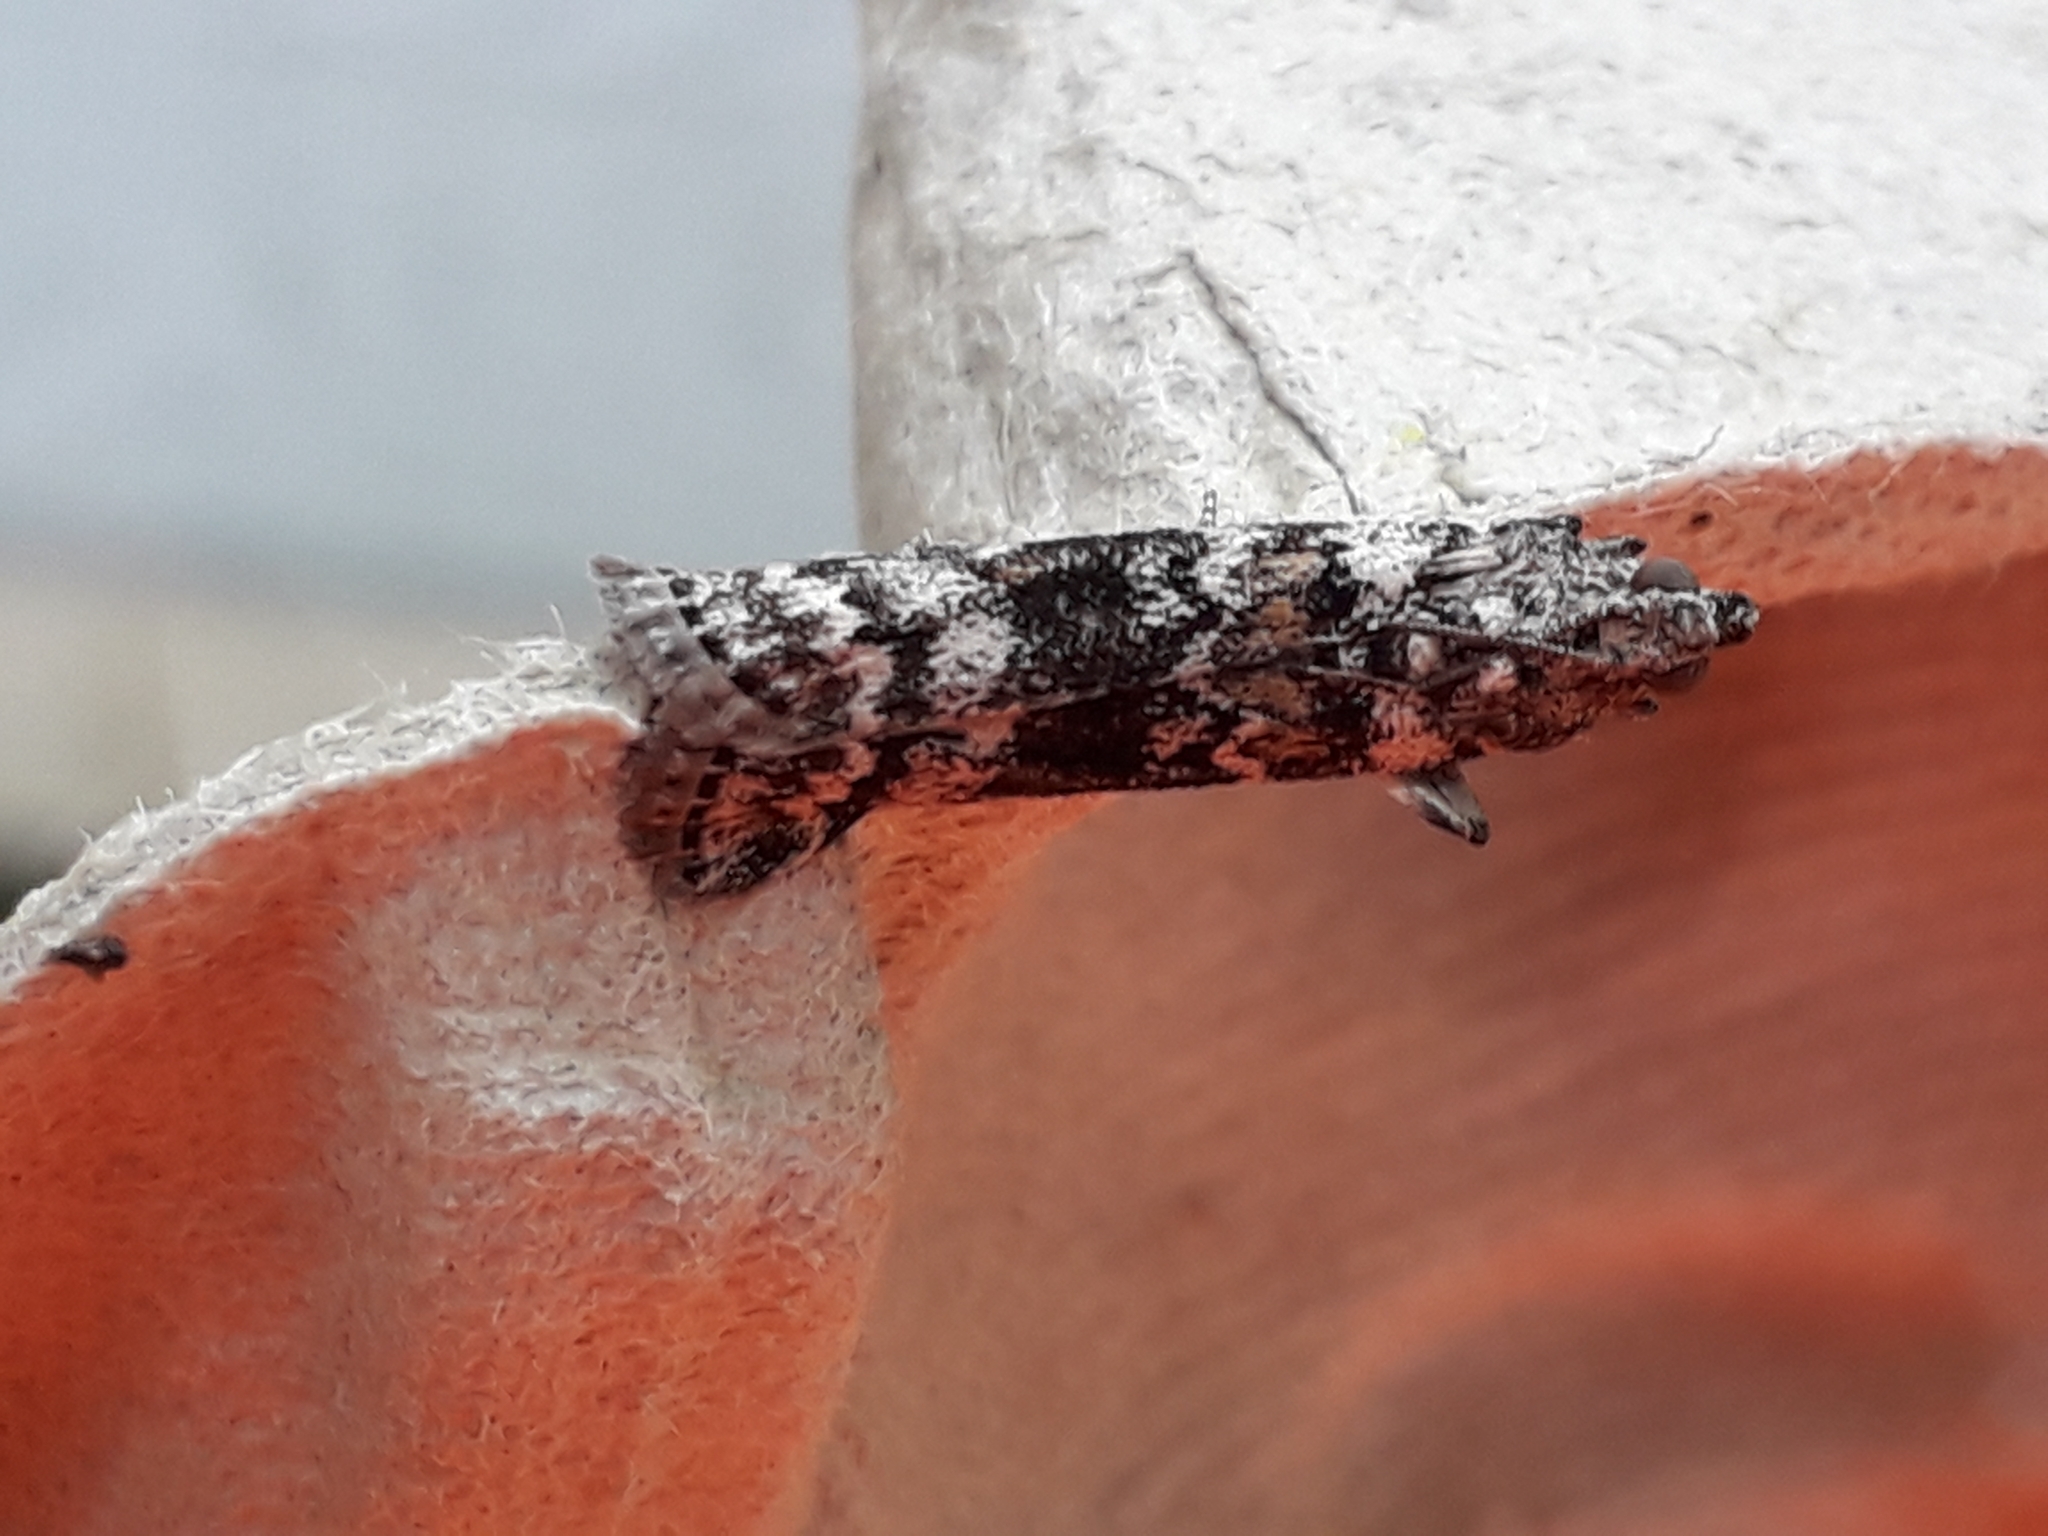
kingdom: Animalia
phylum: Arthropoda
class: Insecta
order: Lepidoptera
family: Pyralidae
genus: Dioryctria
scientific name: Dioryctria abietella
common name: Dark pine knot-horn
